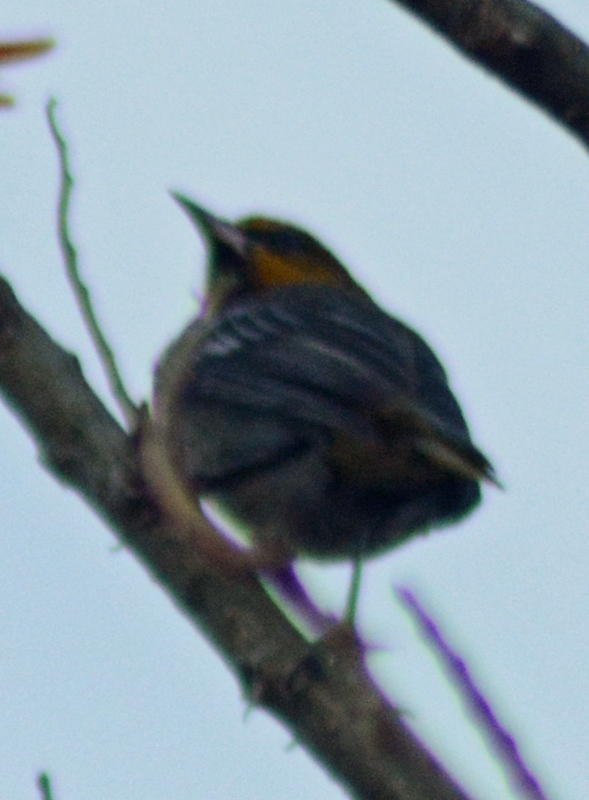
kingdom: Animalia
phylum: Chordata
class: Aves
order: Passeriformes
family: Icteridae
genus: Icterus
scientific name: Icterus abeillei
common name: Black-backed oriole
